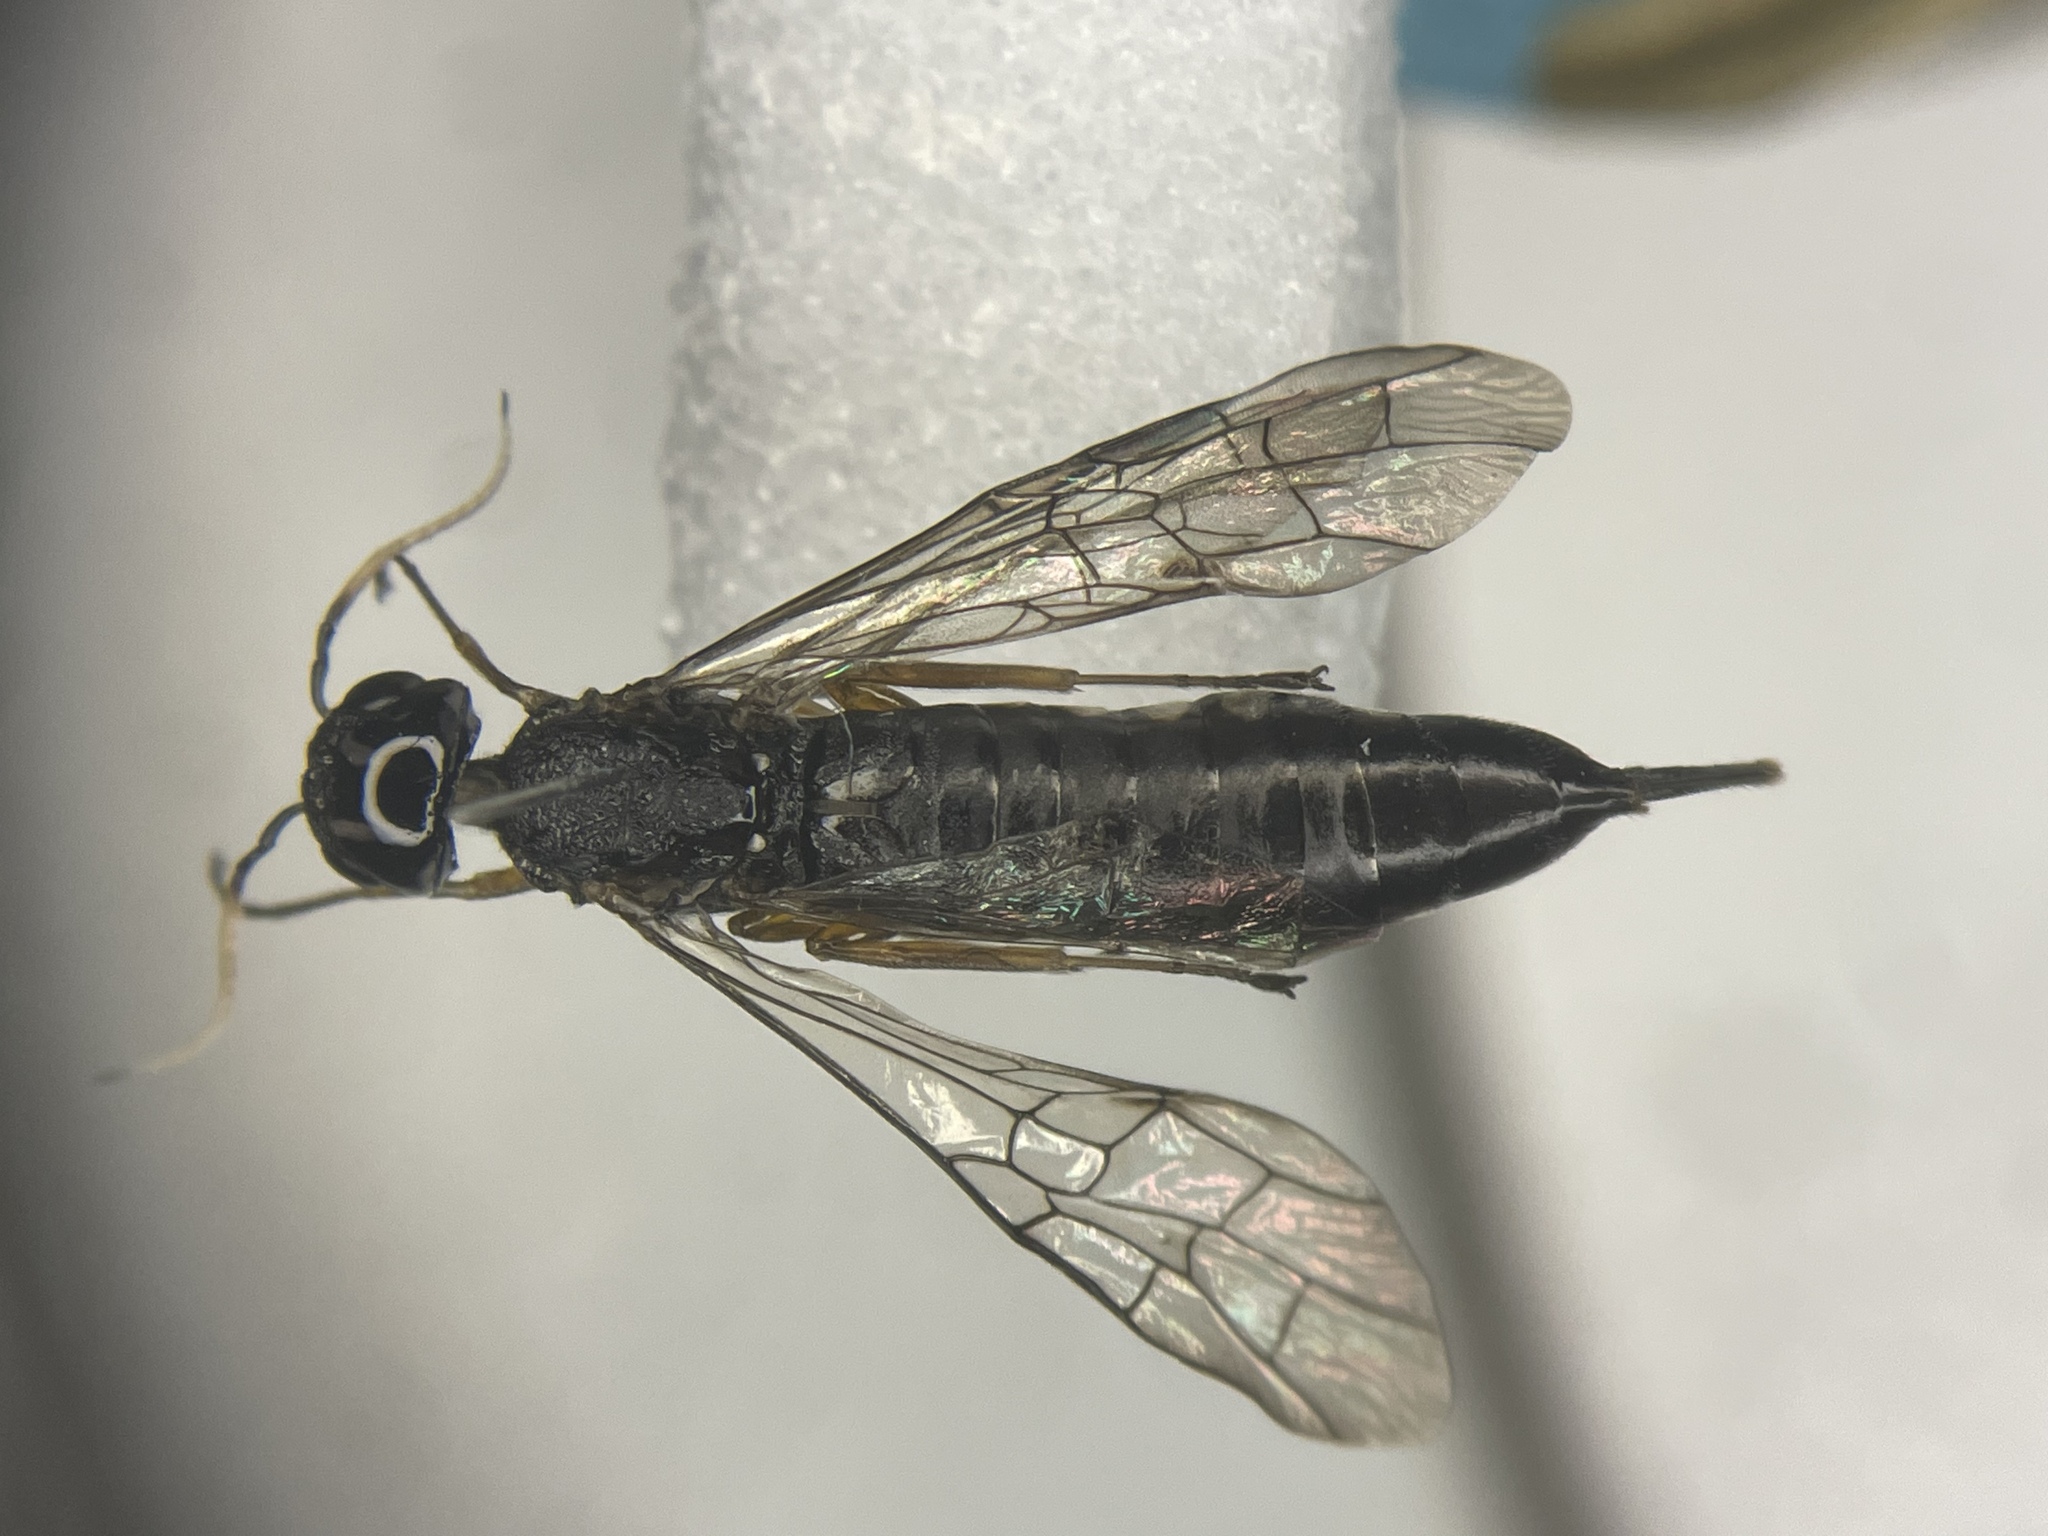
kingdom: Animalia
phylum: Arthropoda
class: Insecta
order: Hymenoptera
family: Xiphydriidae
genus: Xiphydria
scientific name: Xiphydria
